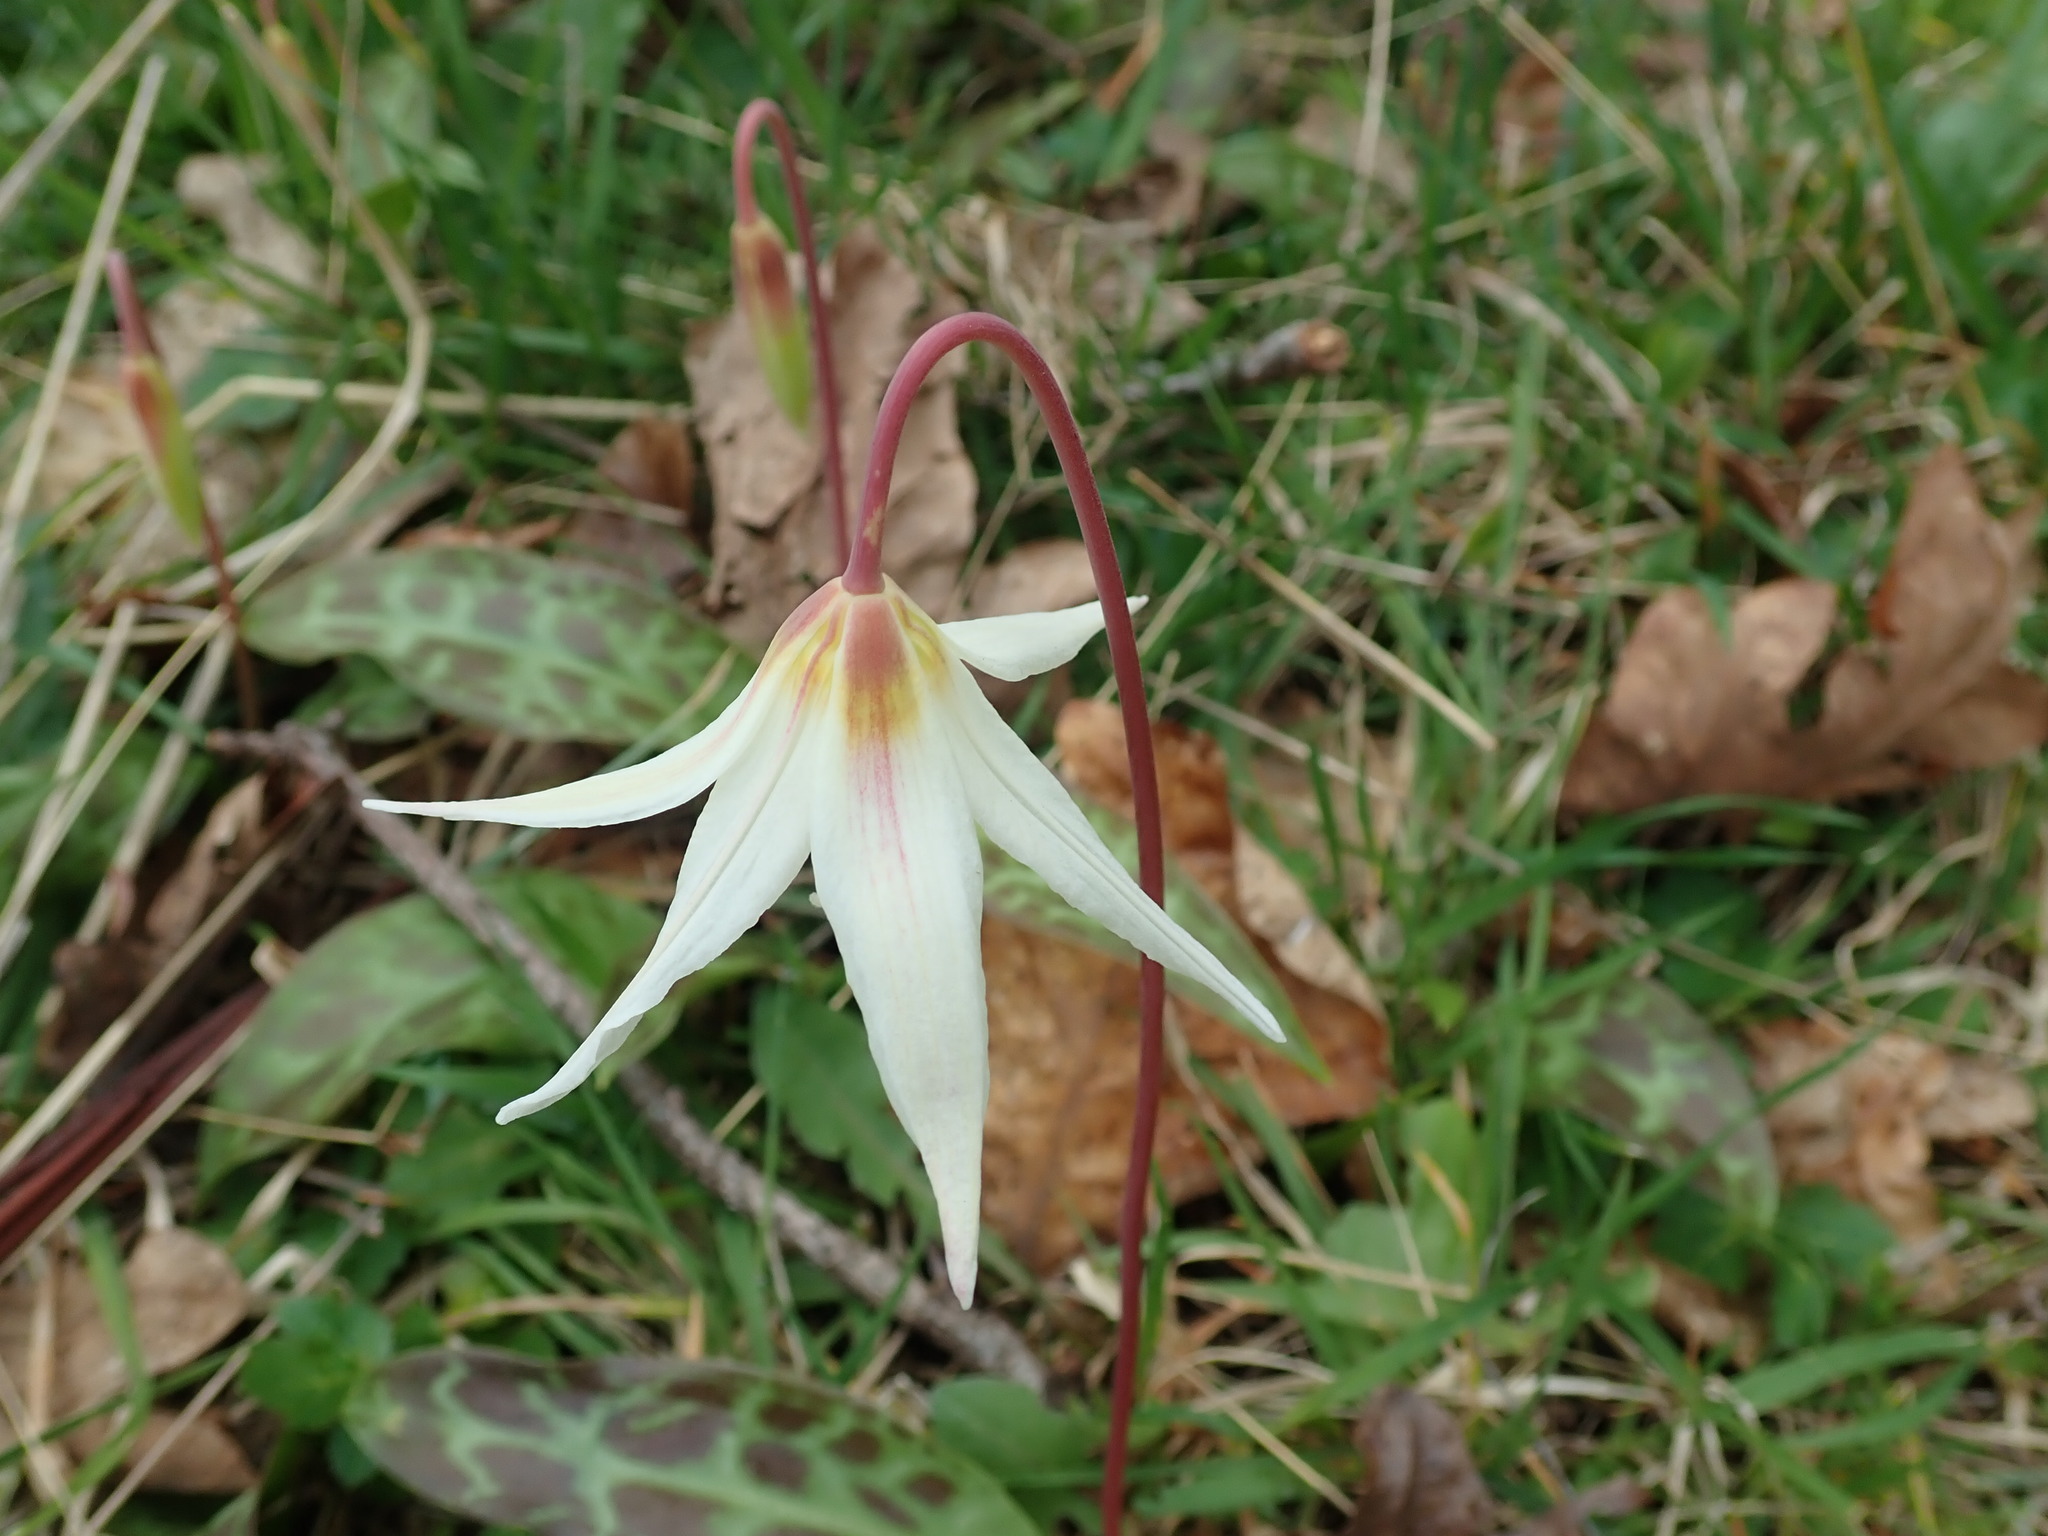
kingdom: Plantae
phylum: Tracheophyta
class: Liliopsida
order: Liliales
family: Liliaceae
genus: Erythronium
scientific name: Erythronium oregonum
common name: Giant adder's-tongue
